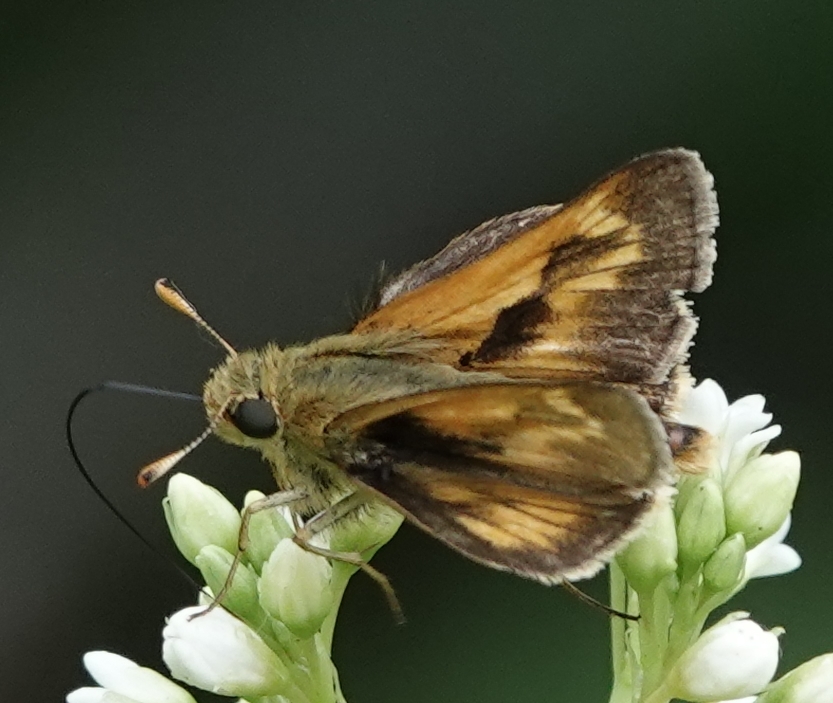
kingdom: Animalia
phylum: Arthropoda
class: Insecta
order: Lepidoptera
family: Hesperiidae
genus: Polites
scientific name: Polites mystic
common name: Long dash
